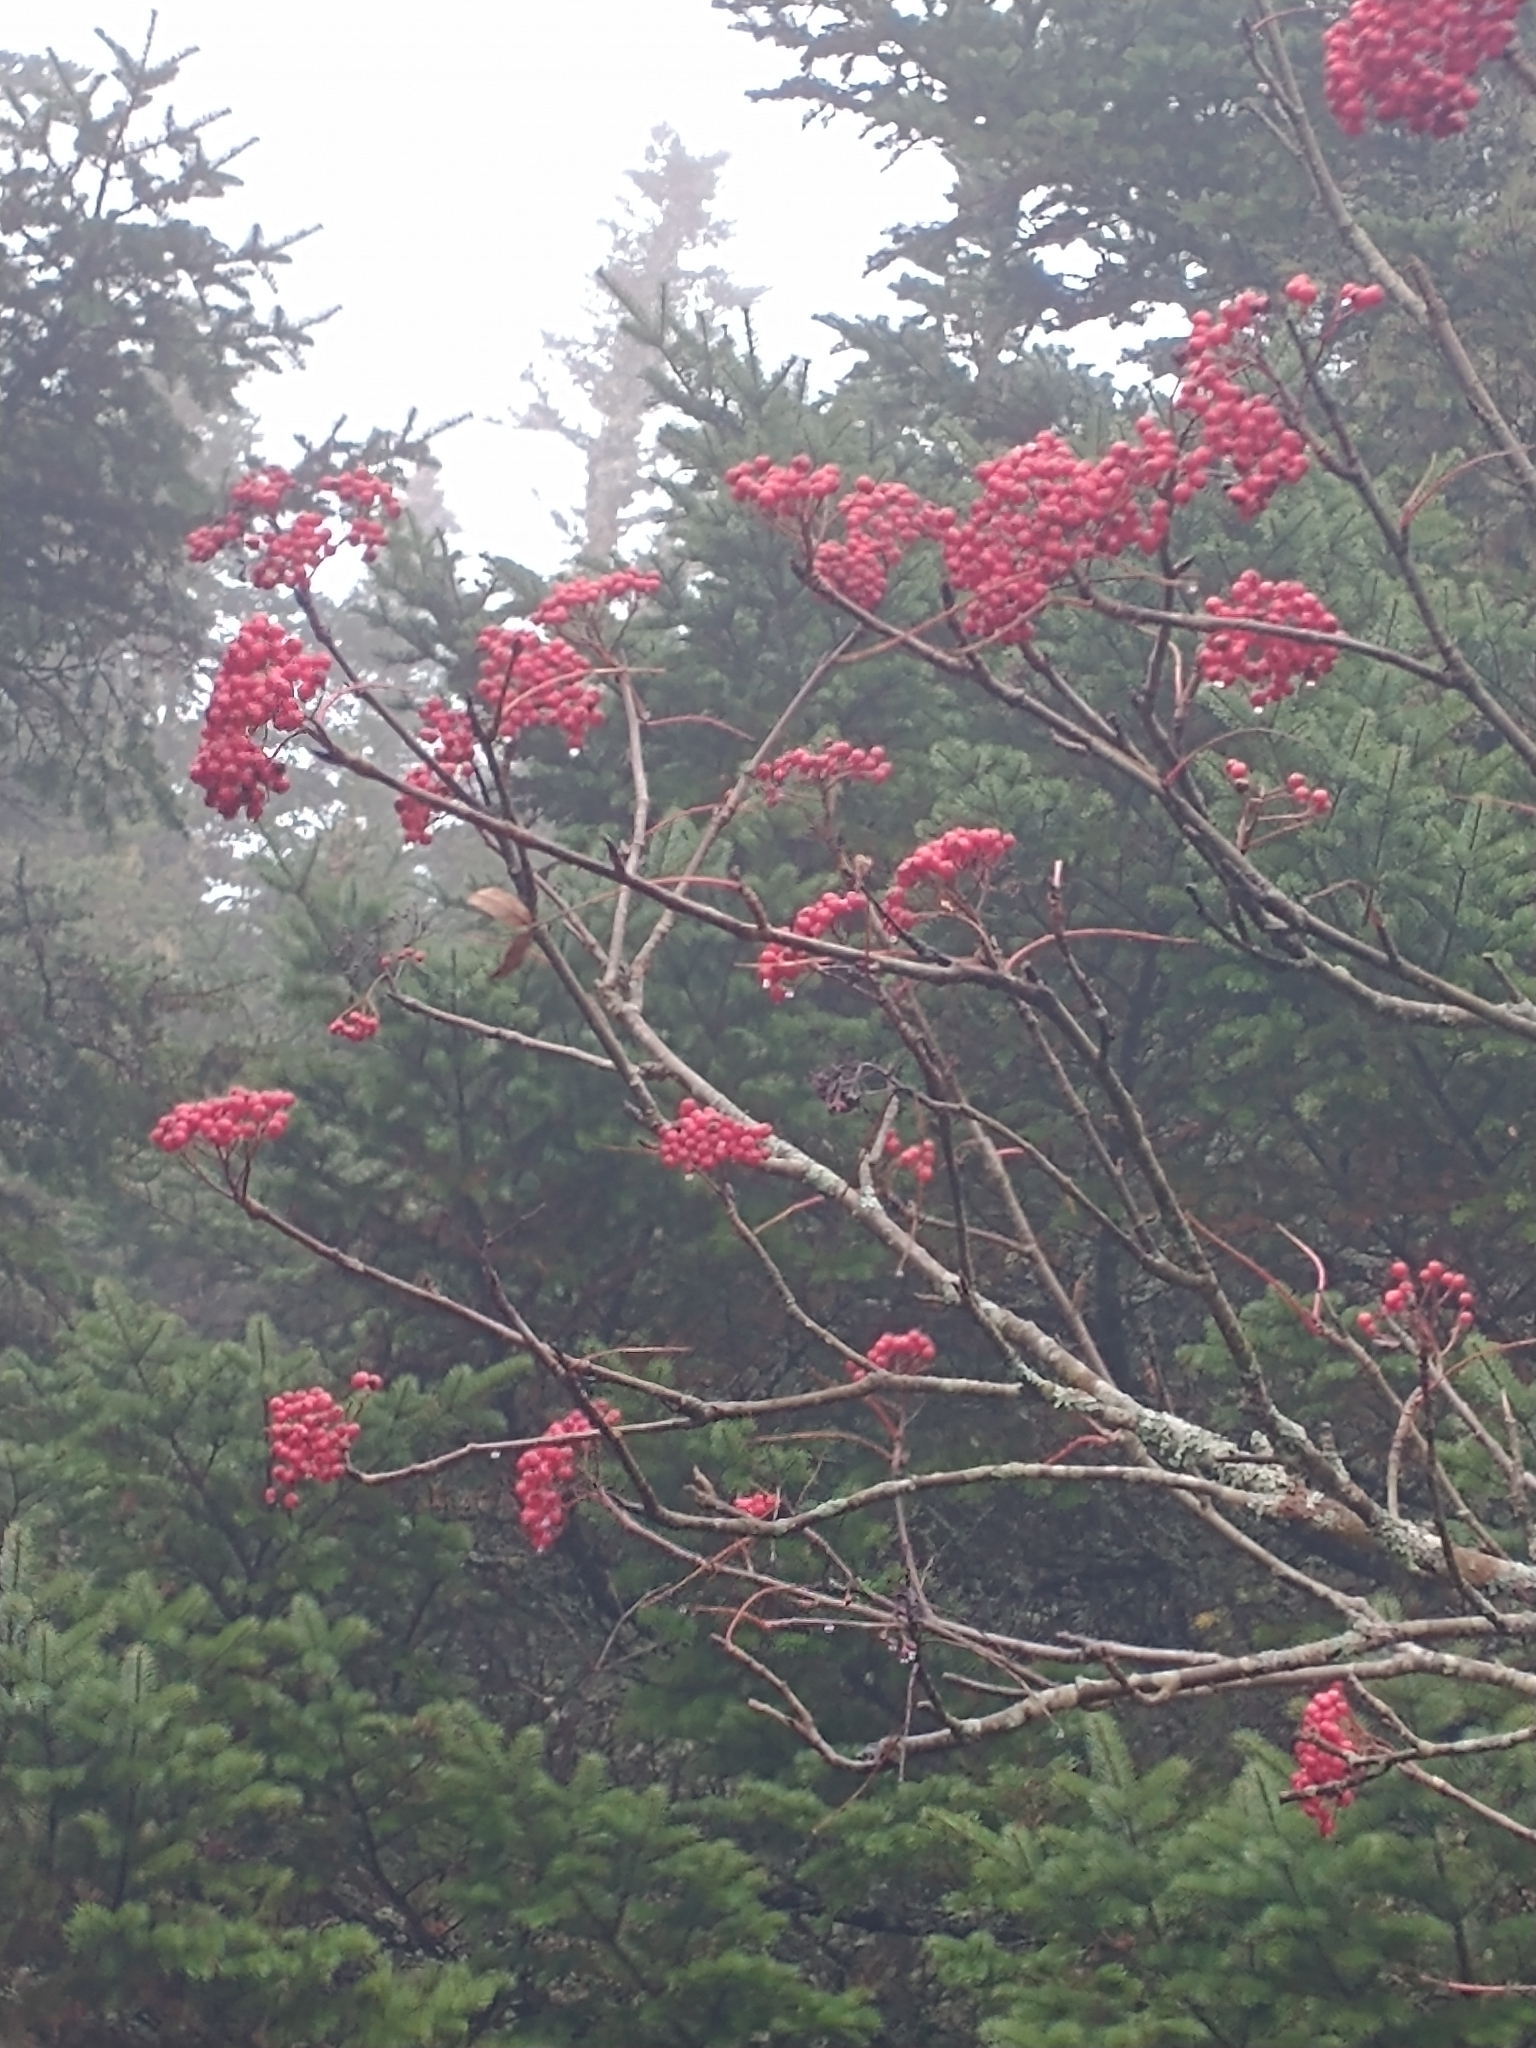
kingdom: Plantae
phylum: Tracheophyta
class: Magnoliopsida
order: Rosales
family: Rosaceae
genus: Sorbus
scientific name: Sorbus americana
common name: American mountain-ash
